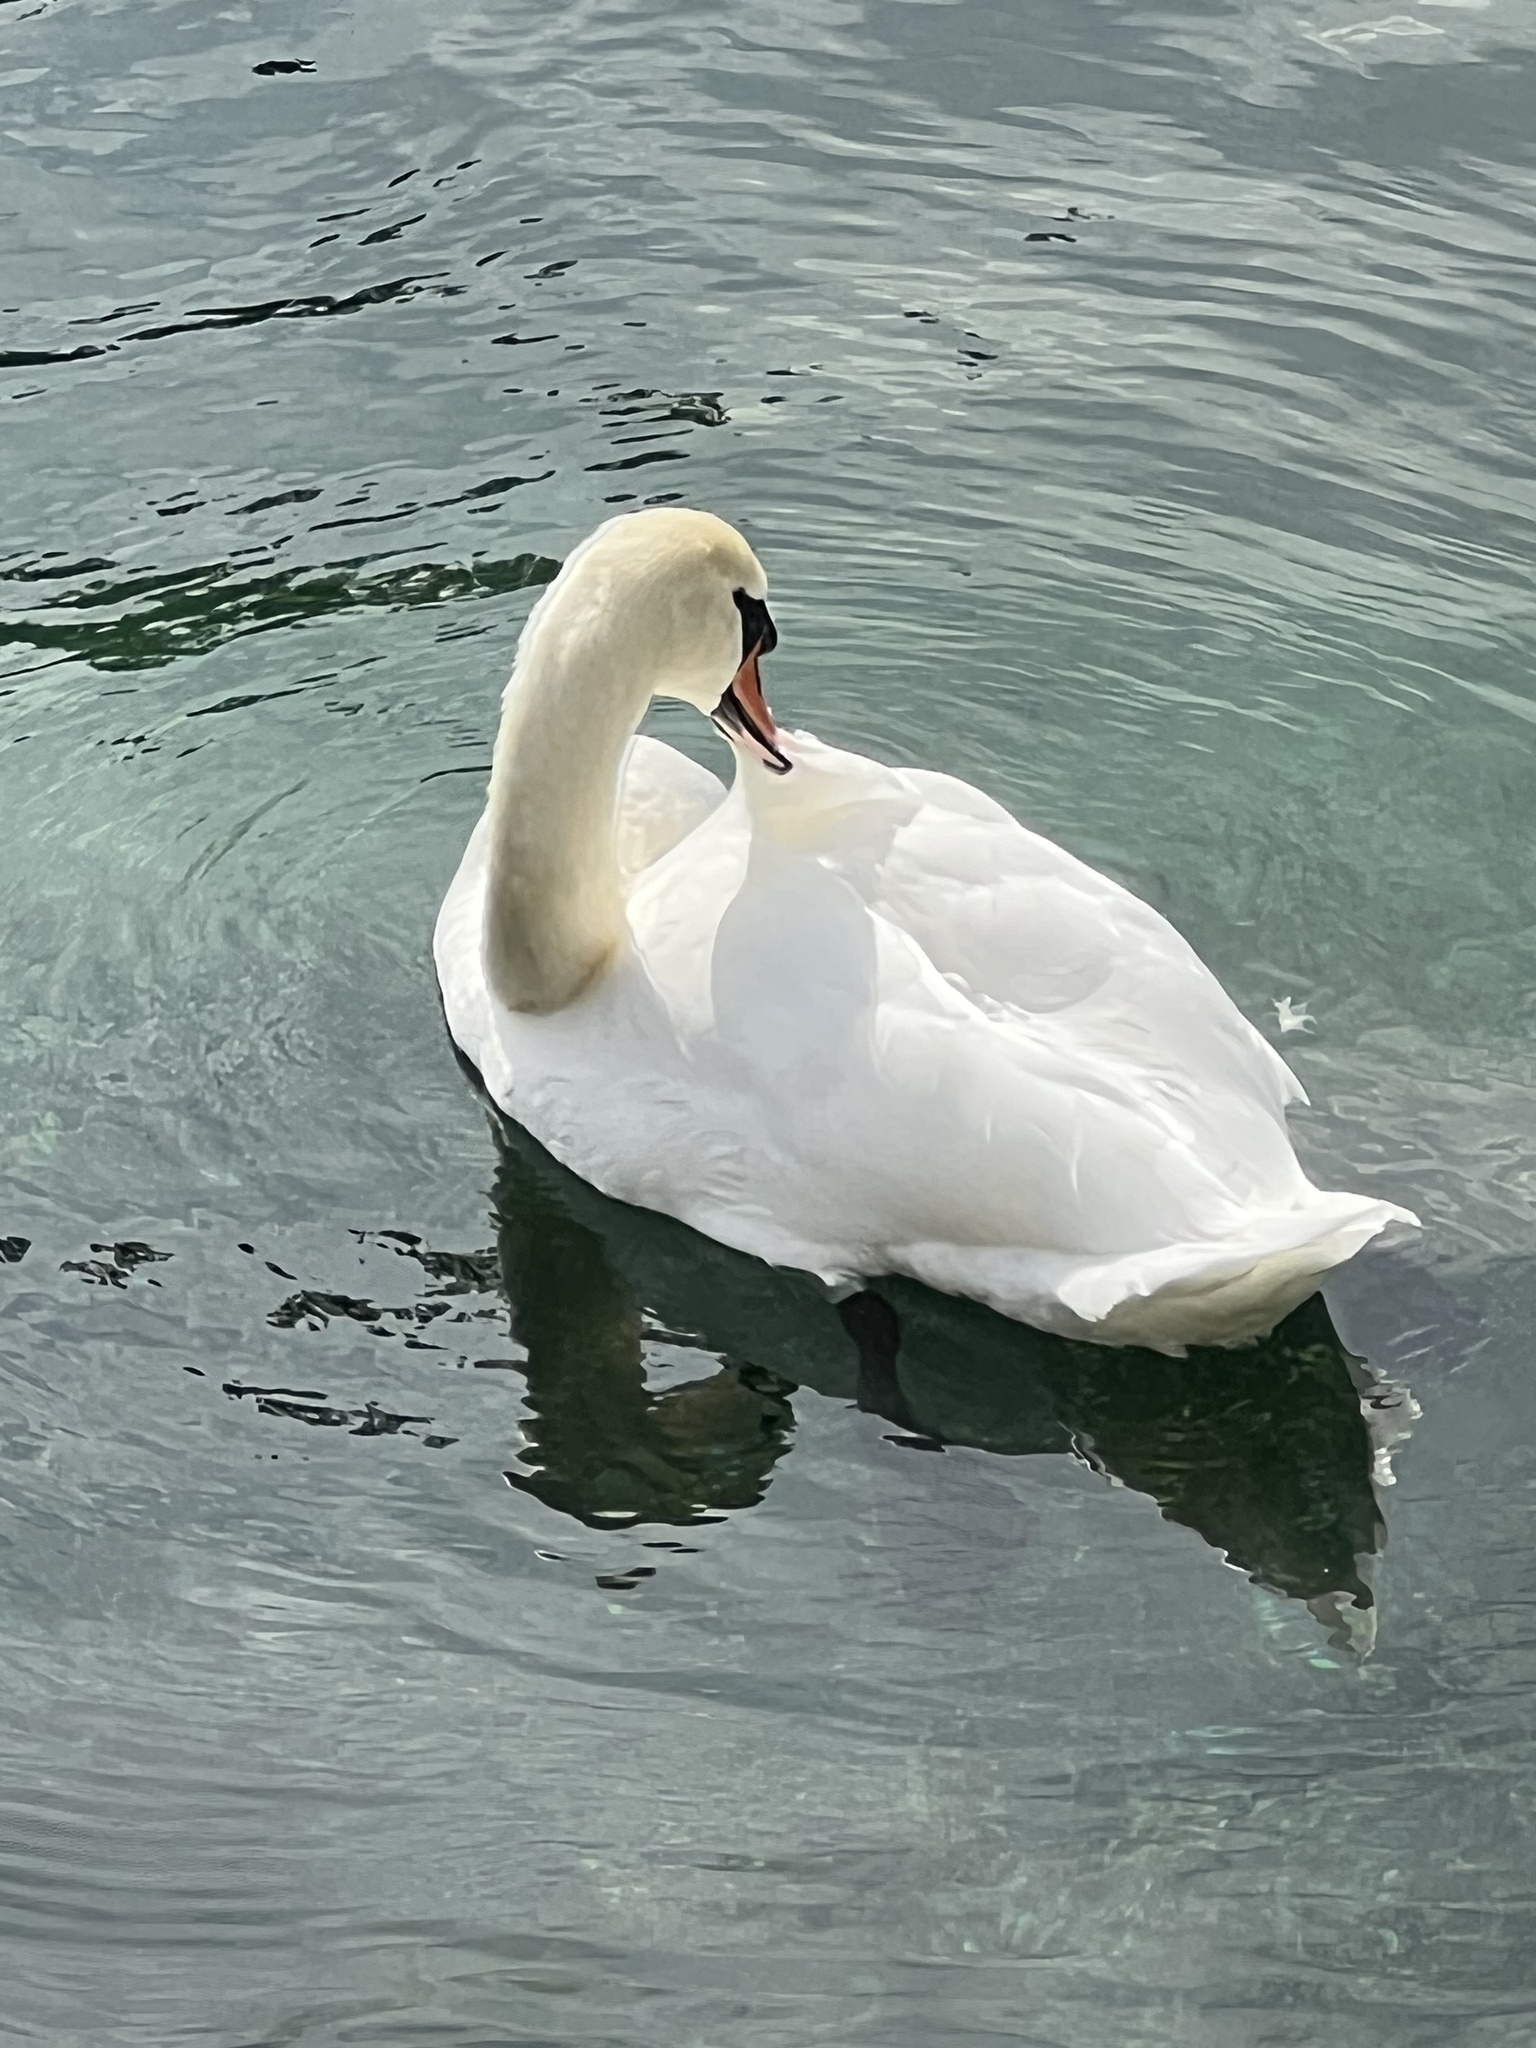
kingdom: Animalia
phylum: Chordata
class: Aves
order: Anseriformes
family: Anatidae
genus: Cygnus
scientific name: Cygnus olor
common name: Mute swan
